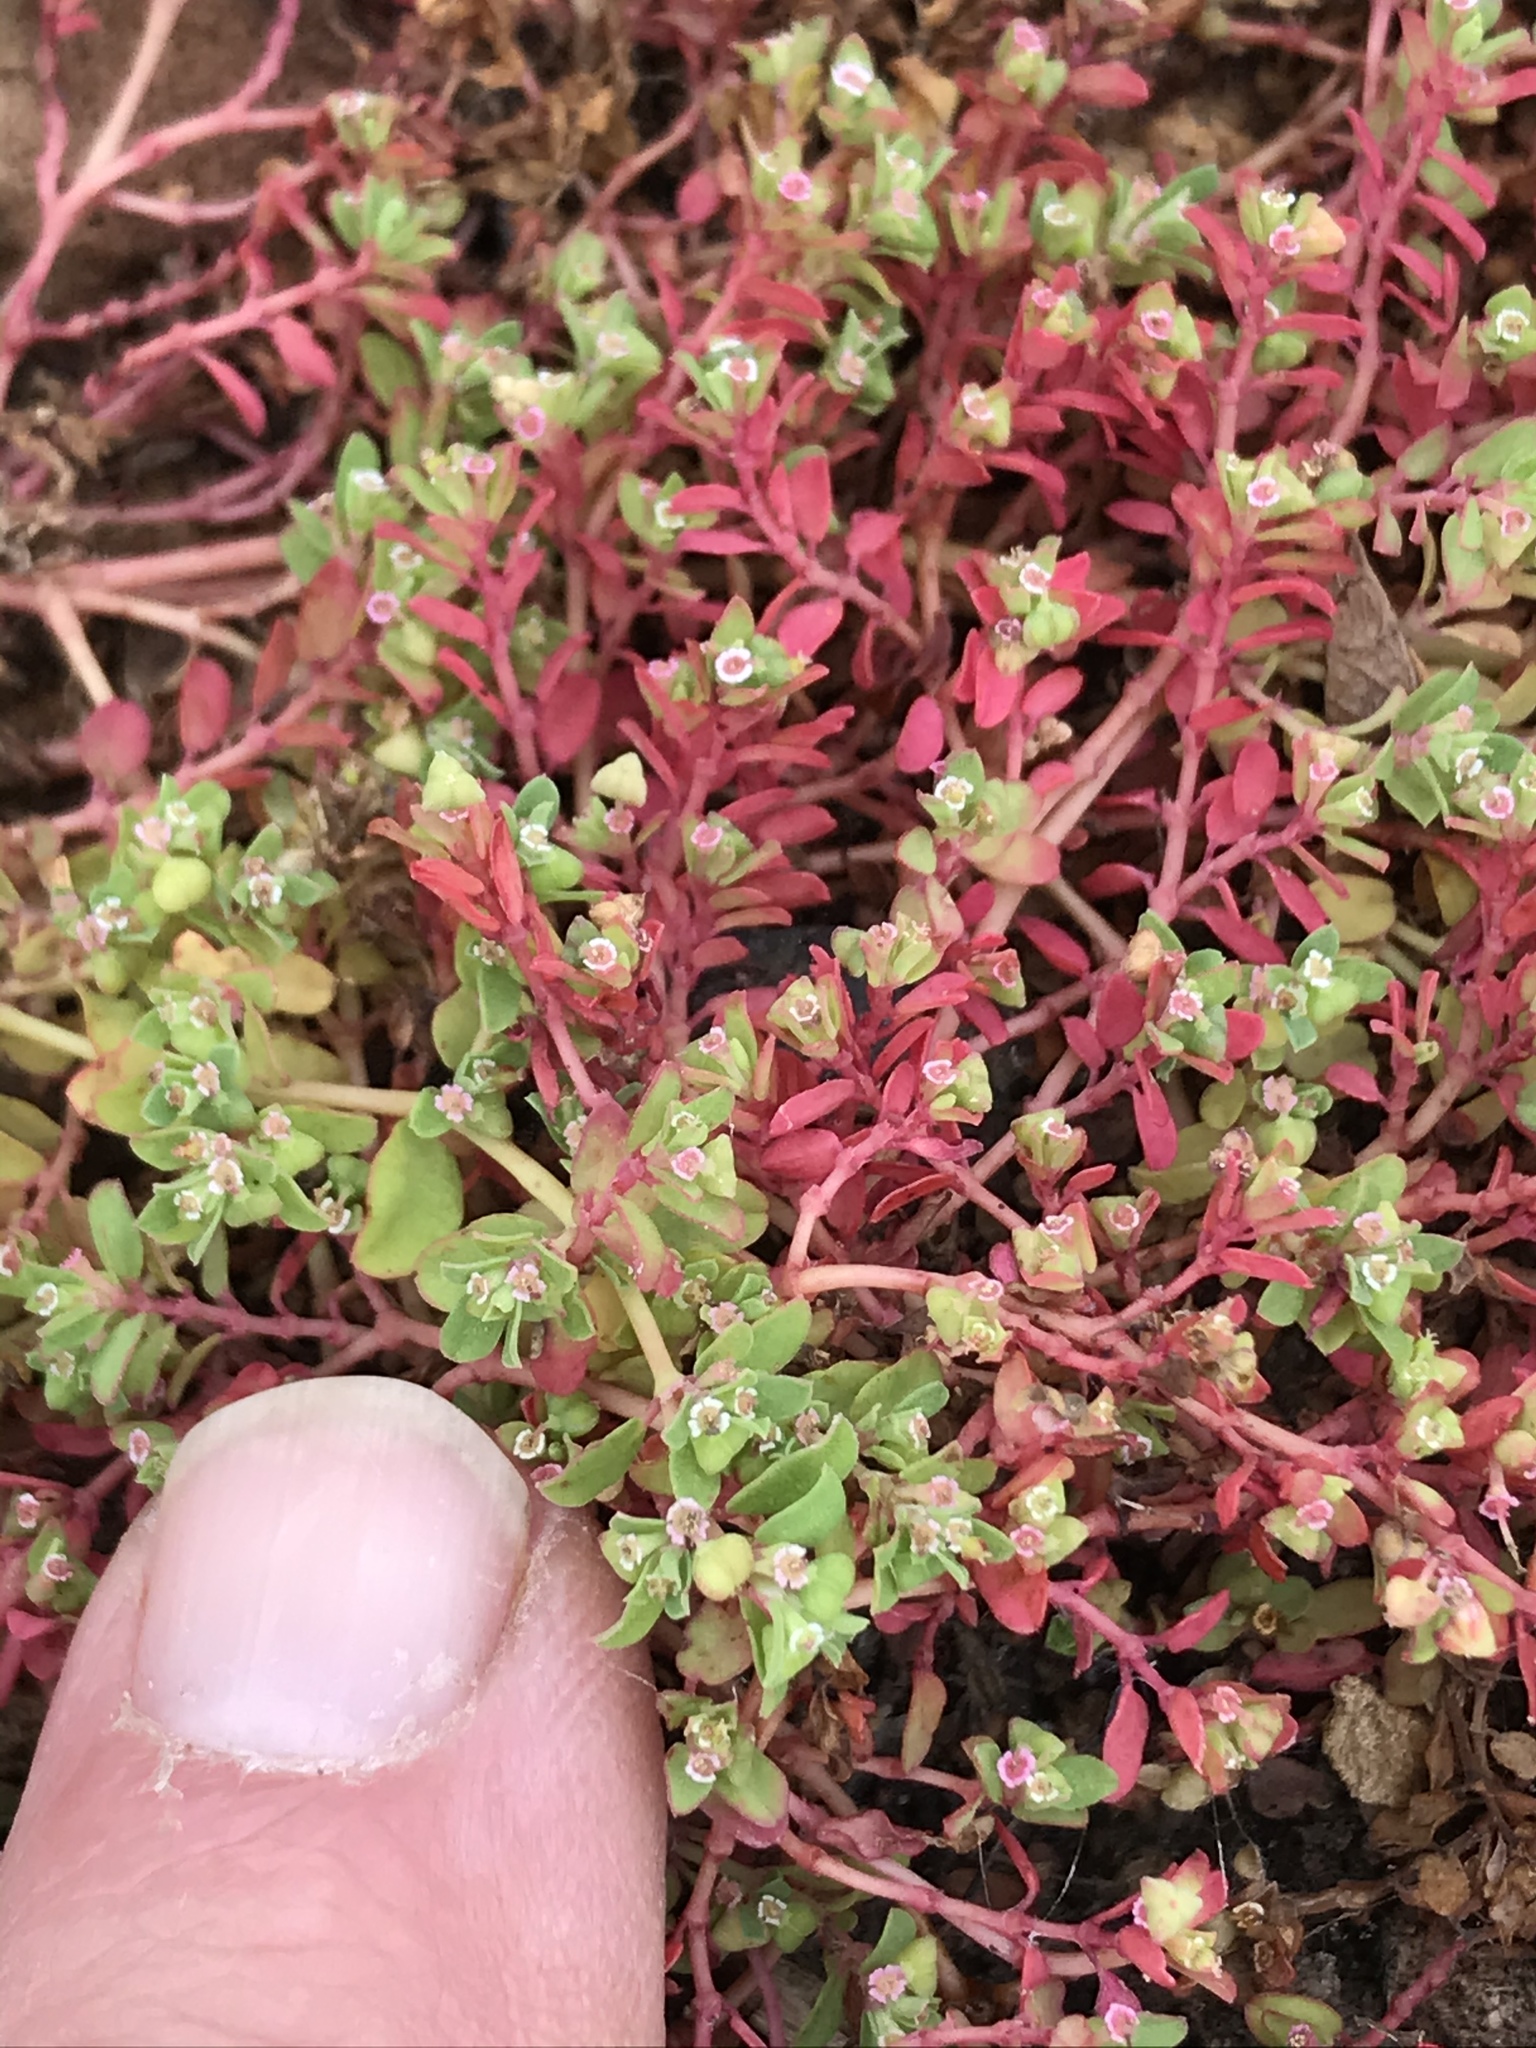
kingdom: Plantae
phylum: Tracheophyta
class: Magnoliopsida
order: Malpighiales
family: Euphorbiaceae
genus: Euphorbia
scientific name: Euphorbia serpens
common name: Matted sandmat
